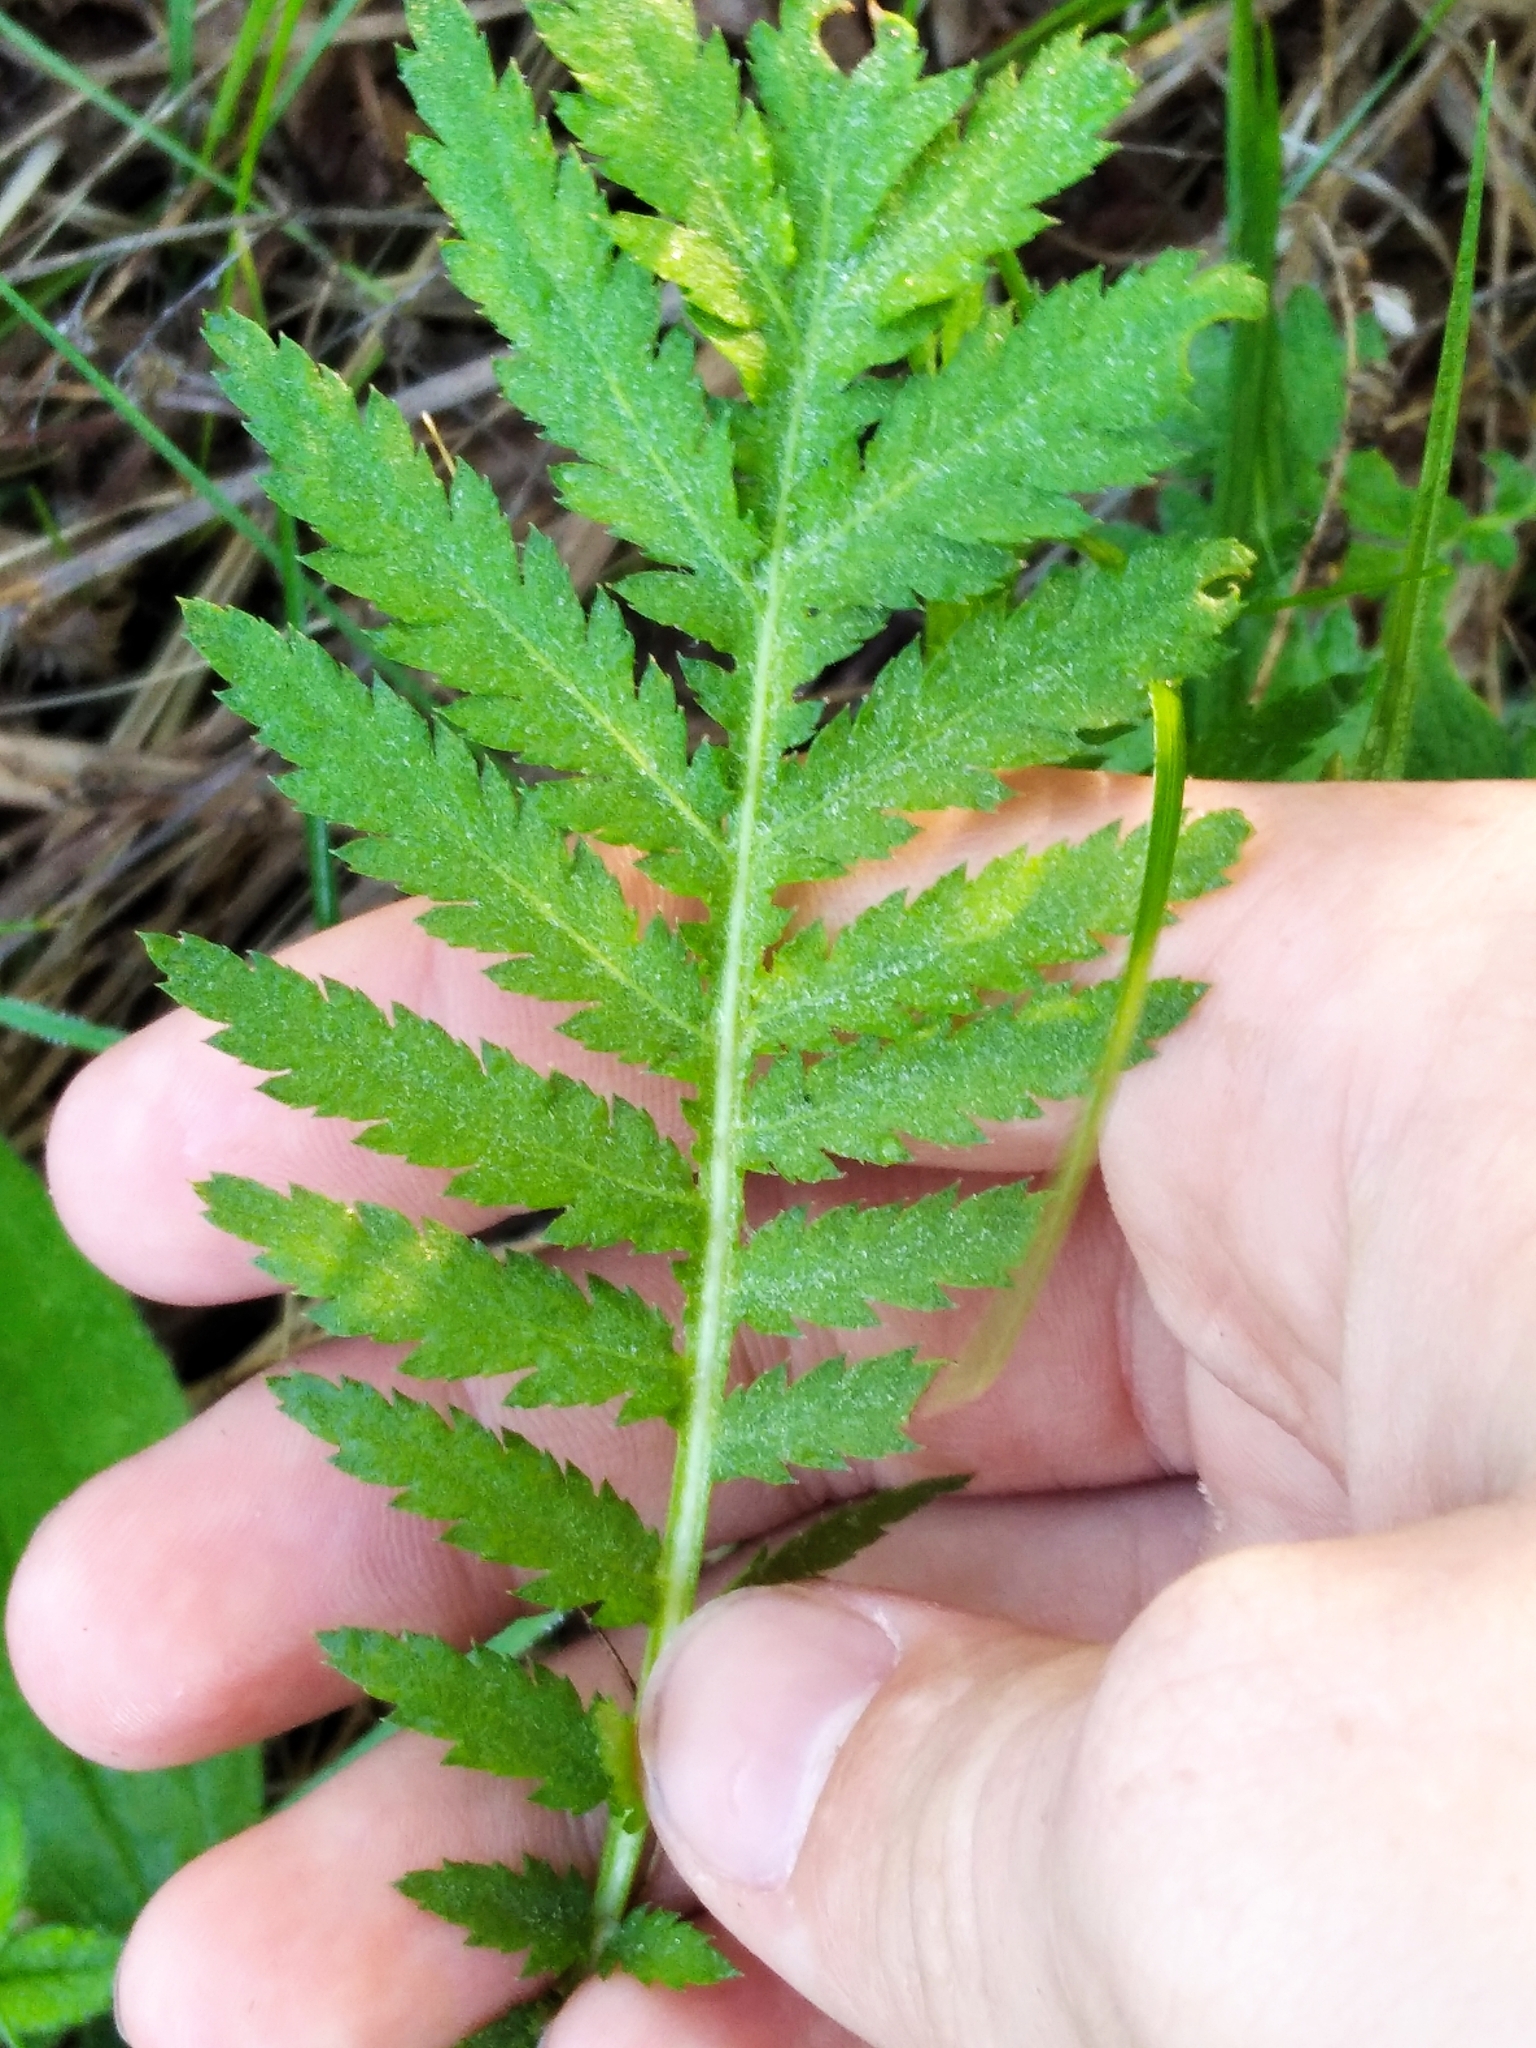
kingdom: Plantae
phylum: Tracheophyta
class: Magnoliopsida
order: Asterales
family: Asteraceae
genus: Tanacetum
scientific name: Tanacetum vulgare
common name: Common tansy
